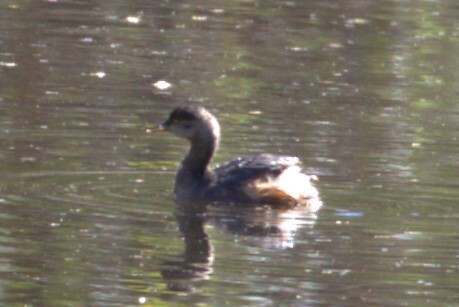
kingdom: Animalia
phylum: Chordata
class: Aves
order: Podicipediformes
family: Podicipedidae
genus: Tachybaptus
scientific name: Tachybaptus novaehollandiae
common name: Australasian grebe
